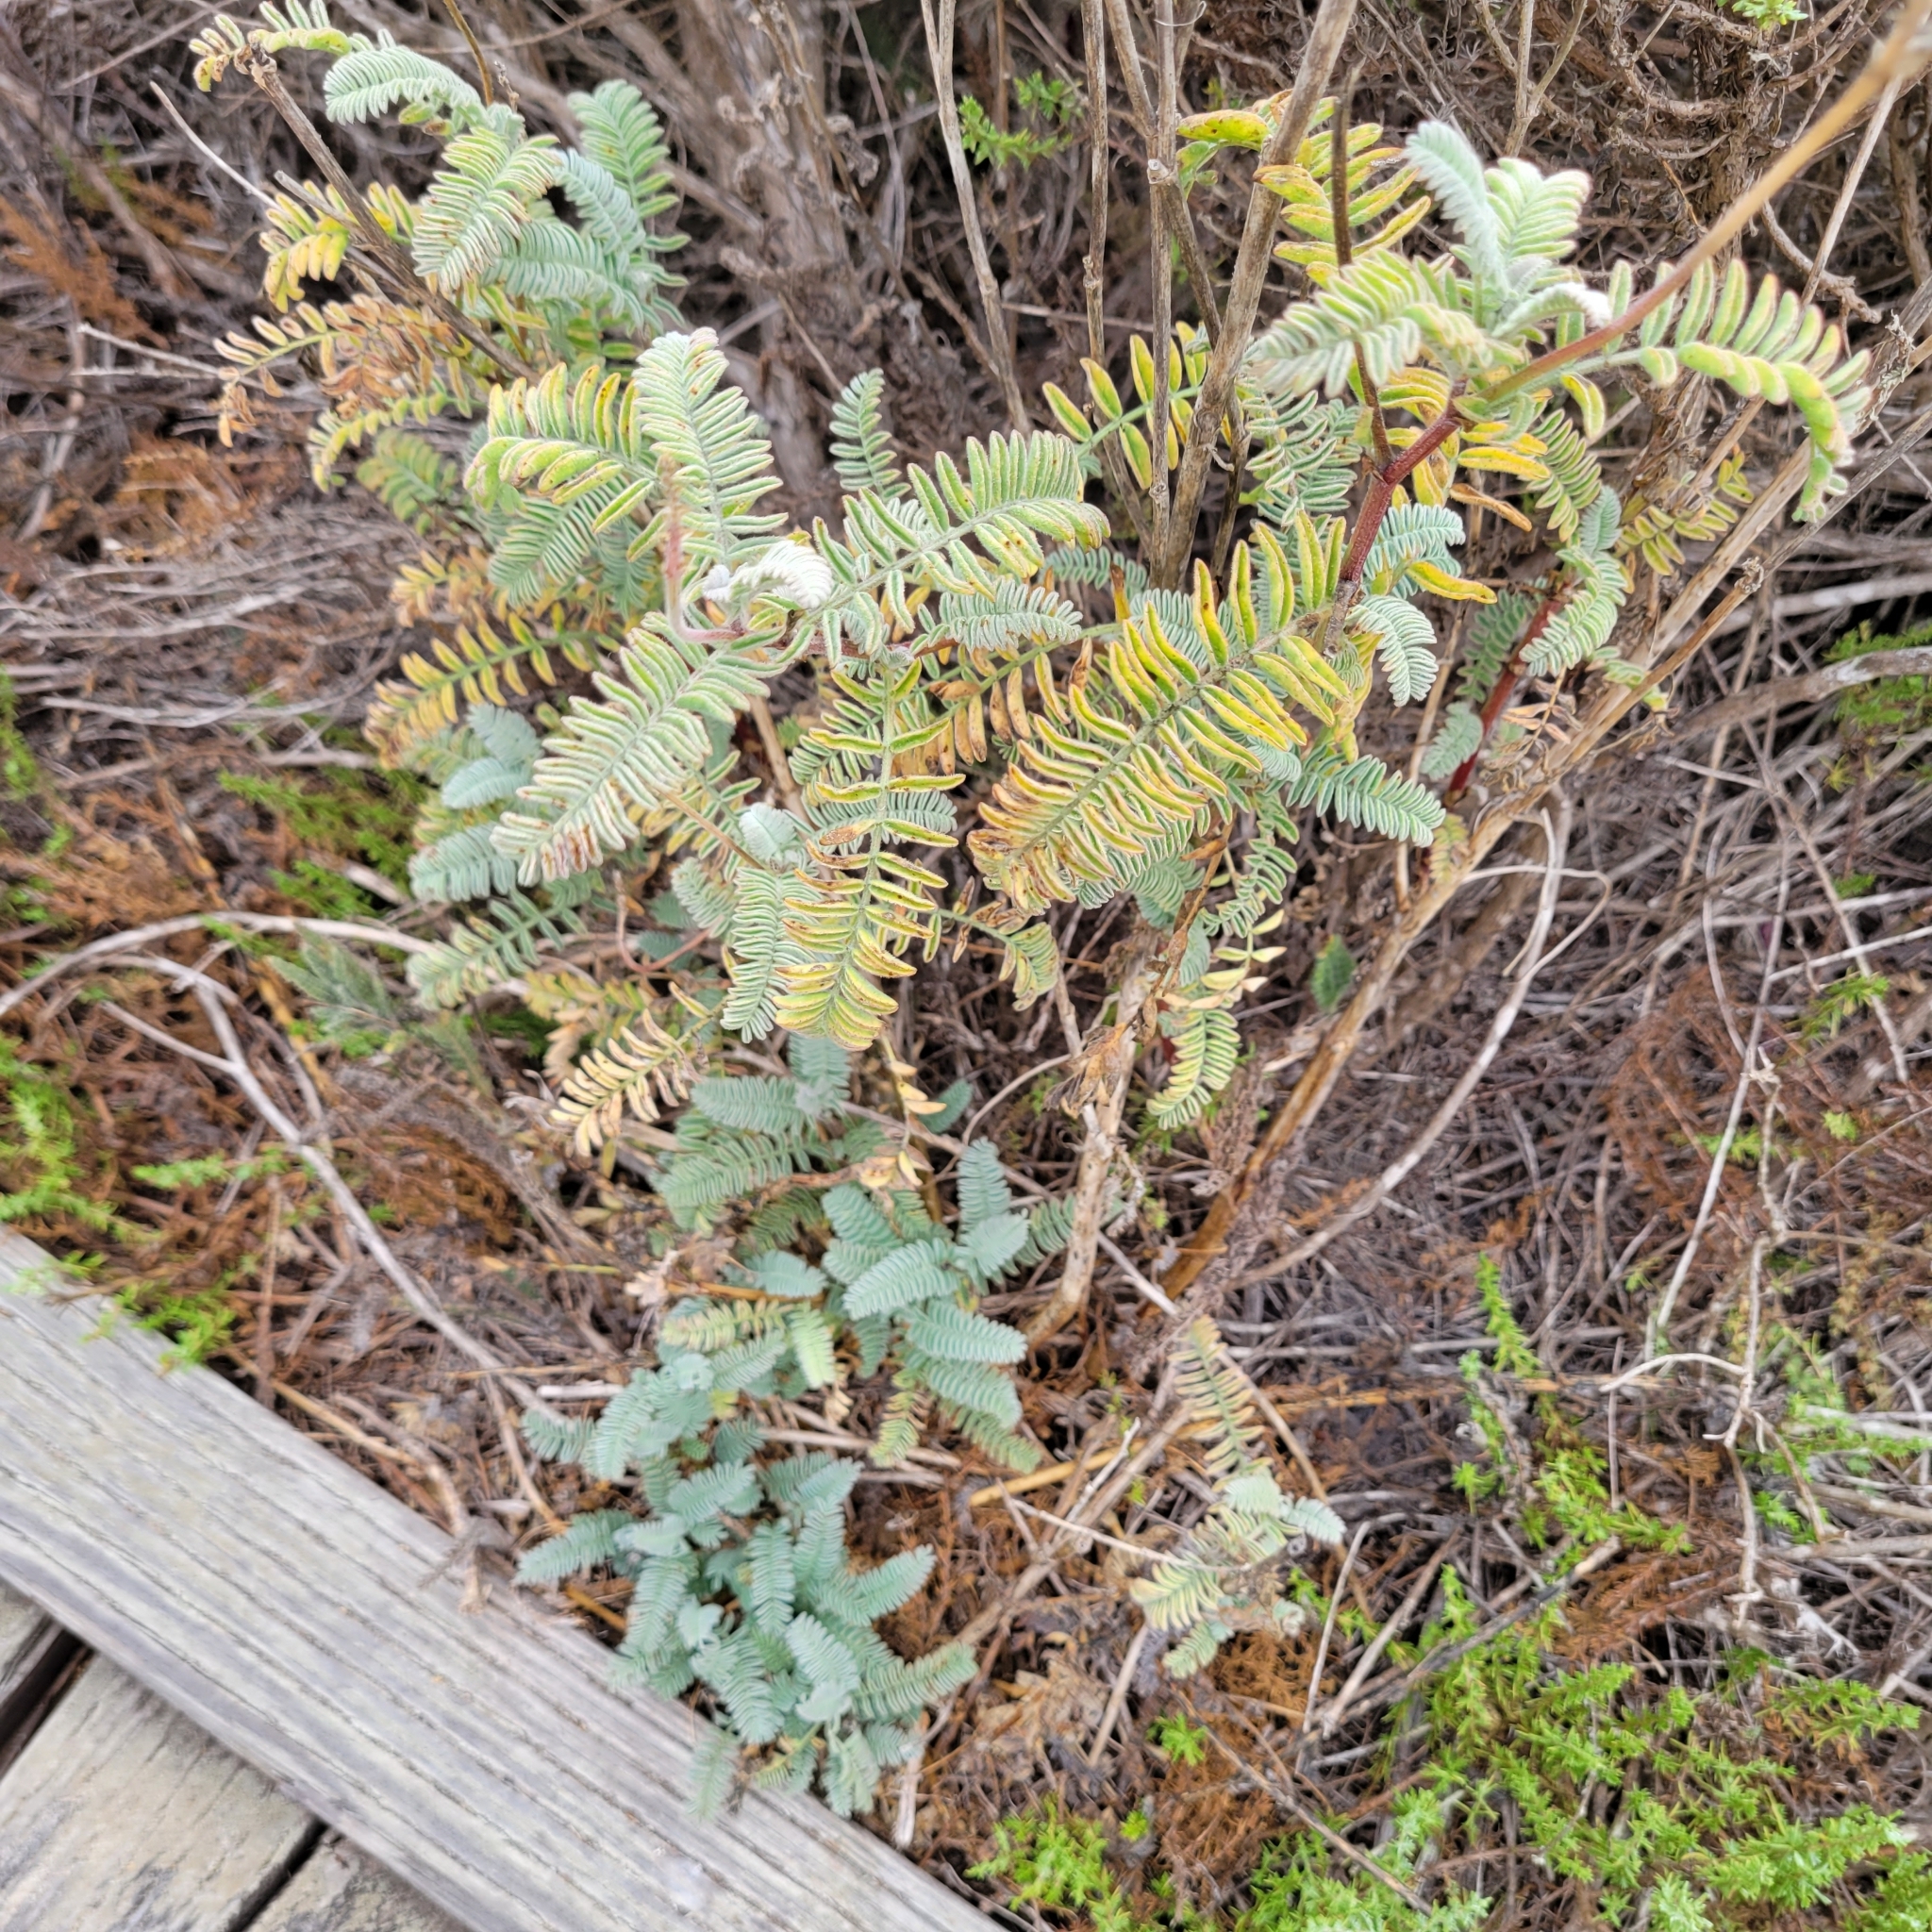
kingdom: Plantae
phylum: Tracheophyta
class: Magnoliopsida
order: Fabales
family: Fabaceae
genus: Astragalus
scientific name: Astragalus nuttallii
